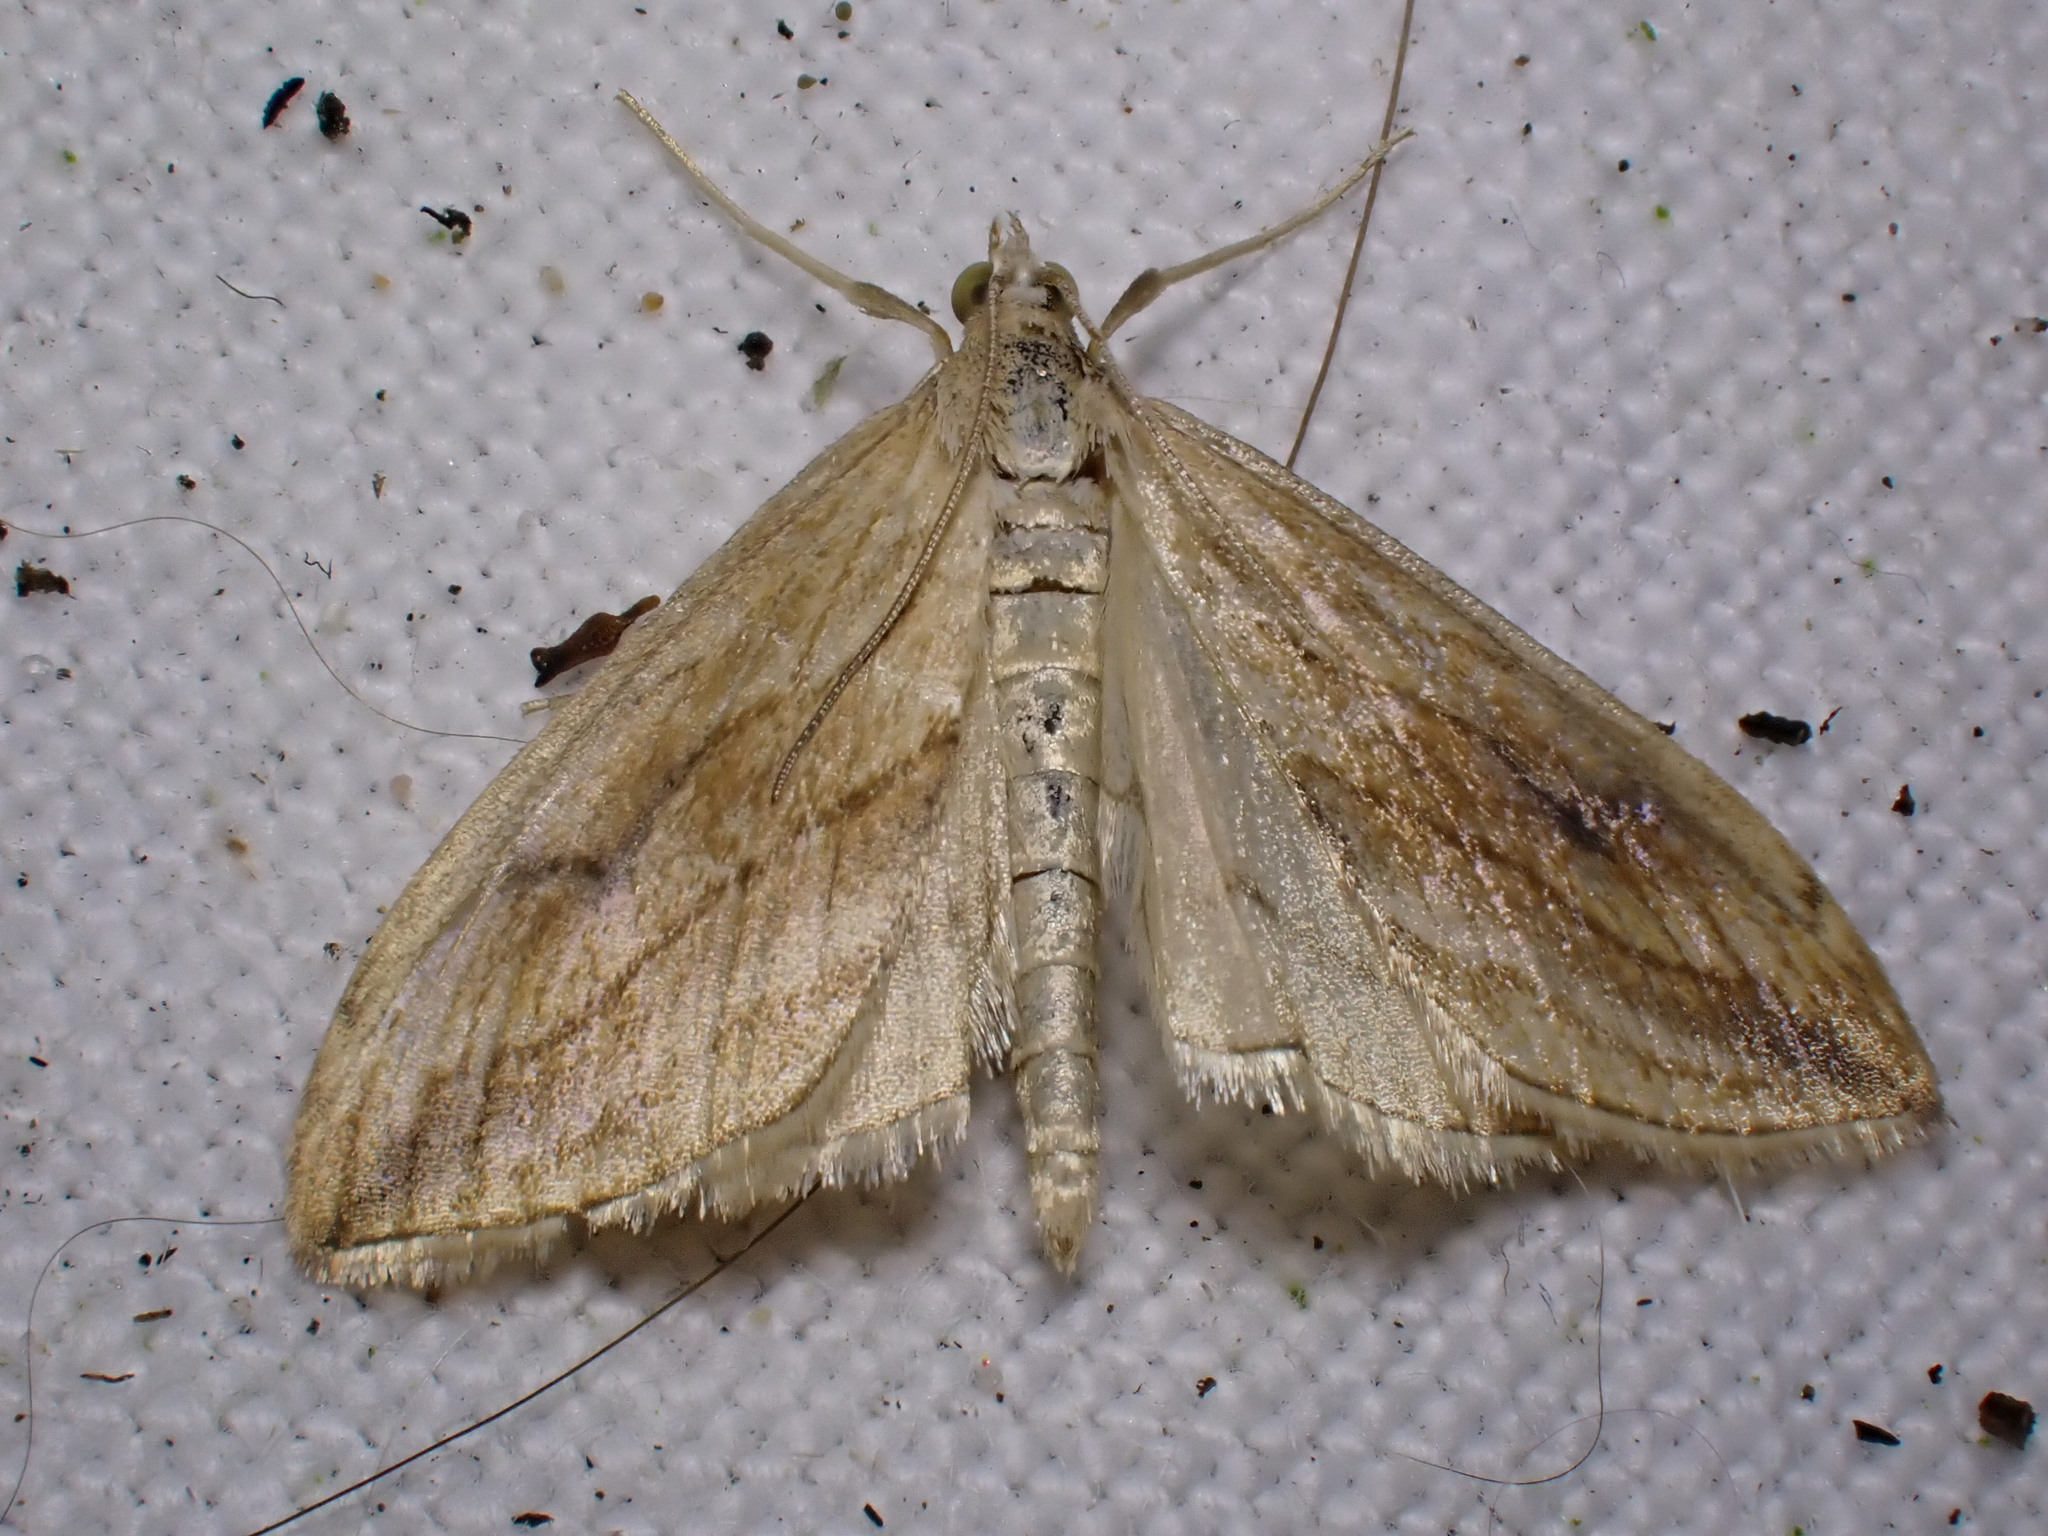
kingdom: Animalia
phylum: Arthropoda
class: Insecta
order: Lepidoptera
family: Crambidae
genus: Evergestis
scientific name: Evergestis forficalis
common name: Garden pebble
